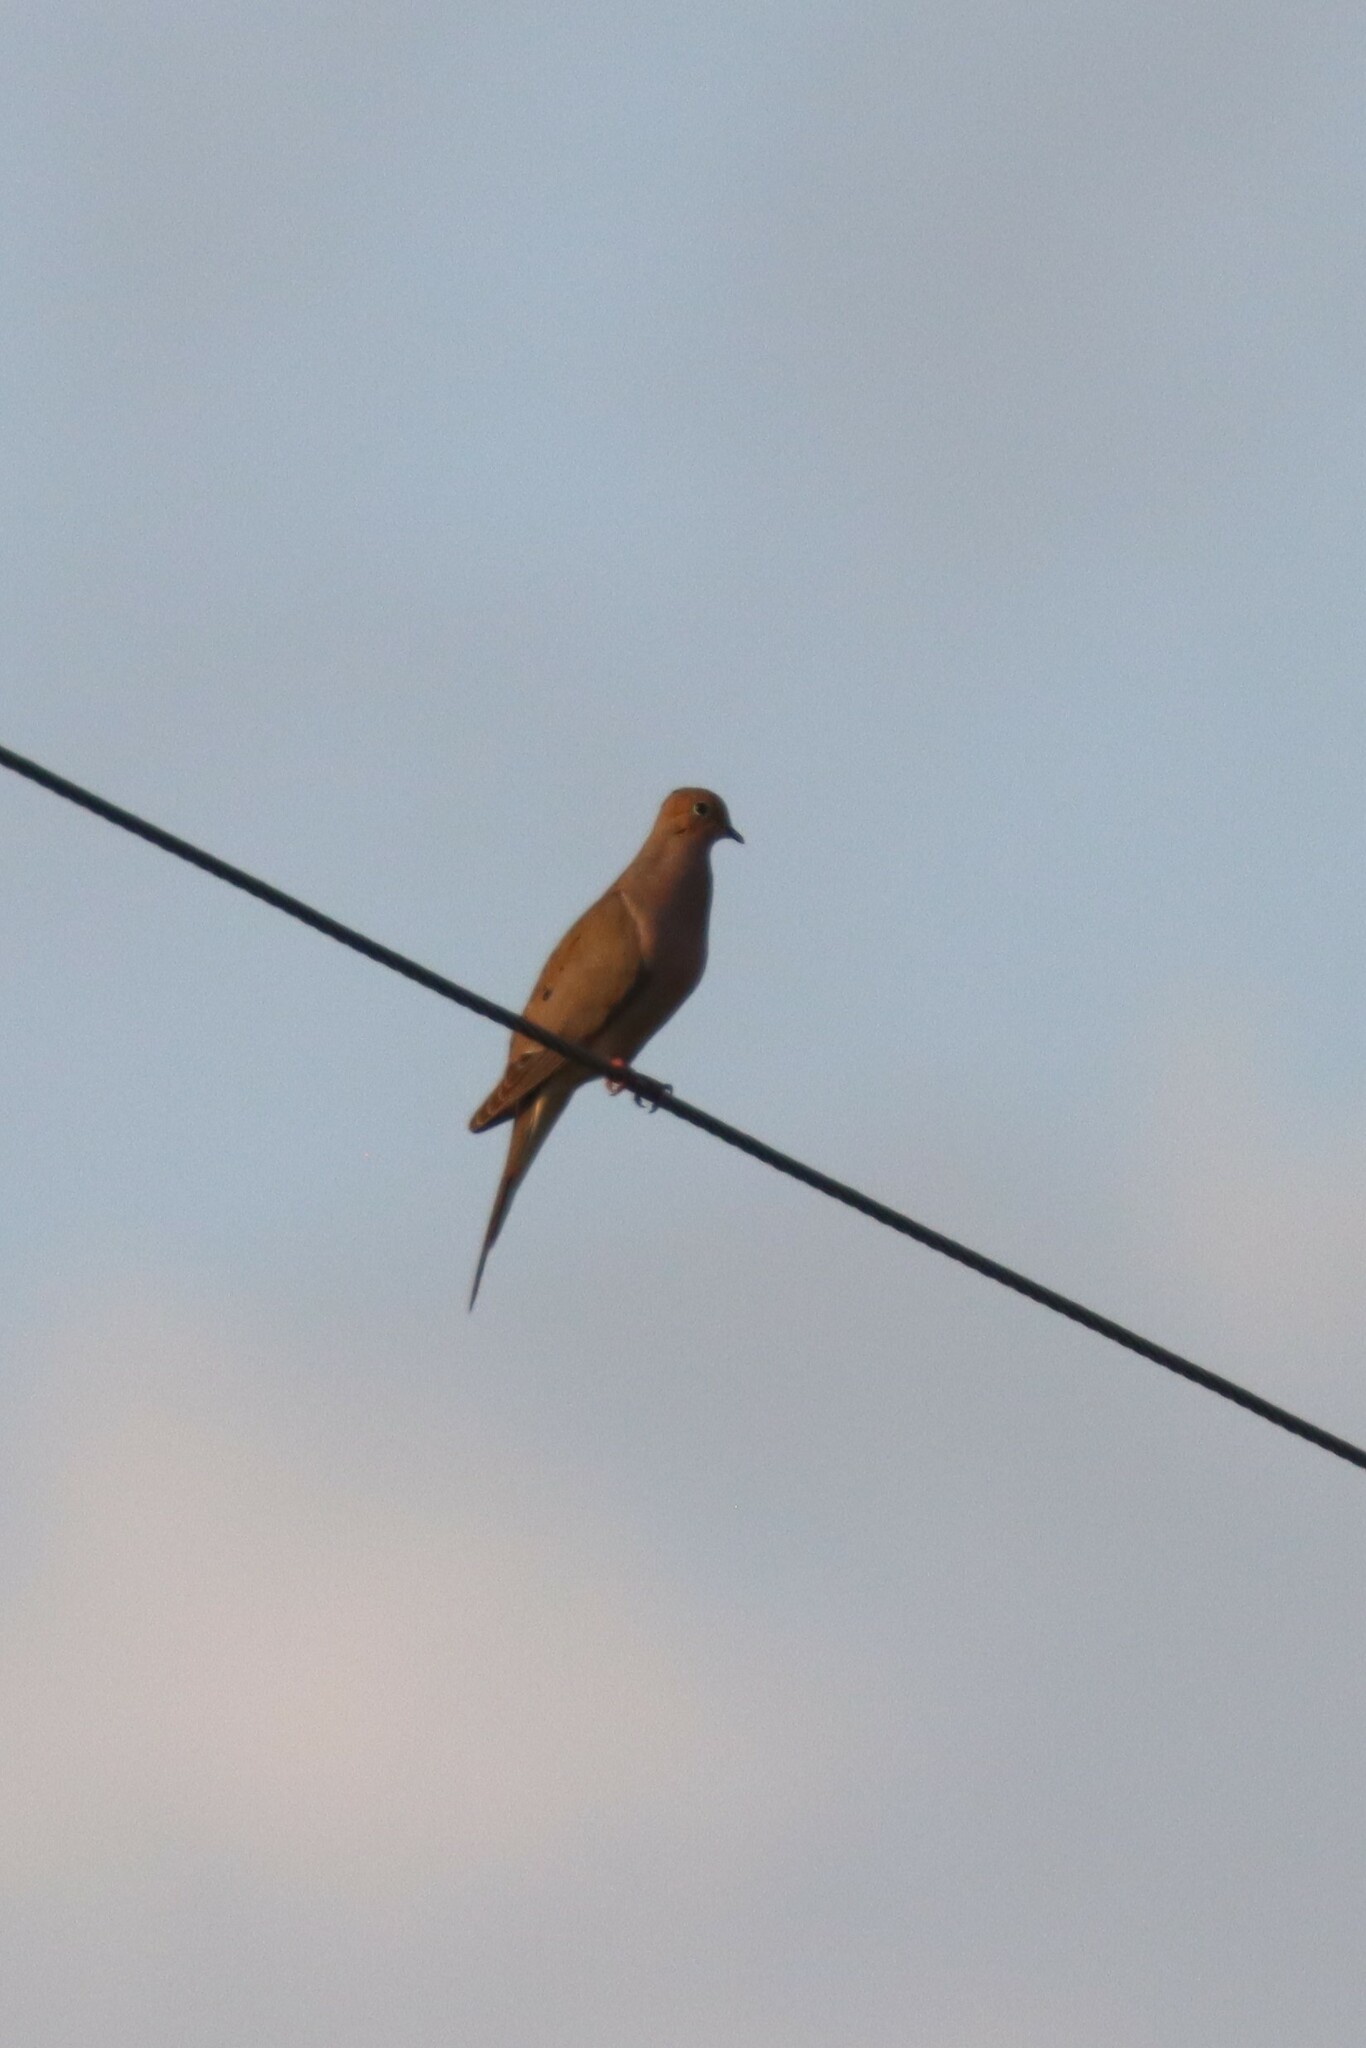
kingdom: Animalia
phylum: Chordata
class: Aves
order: Columbiformes
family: Columbidae
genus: Zenaida
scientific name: Zenaida macroura
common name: Mourning dove
